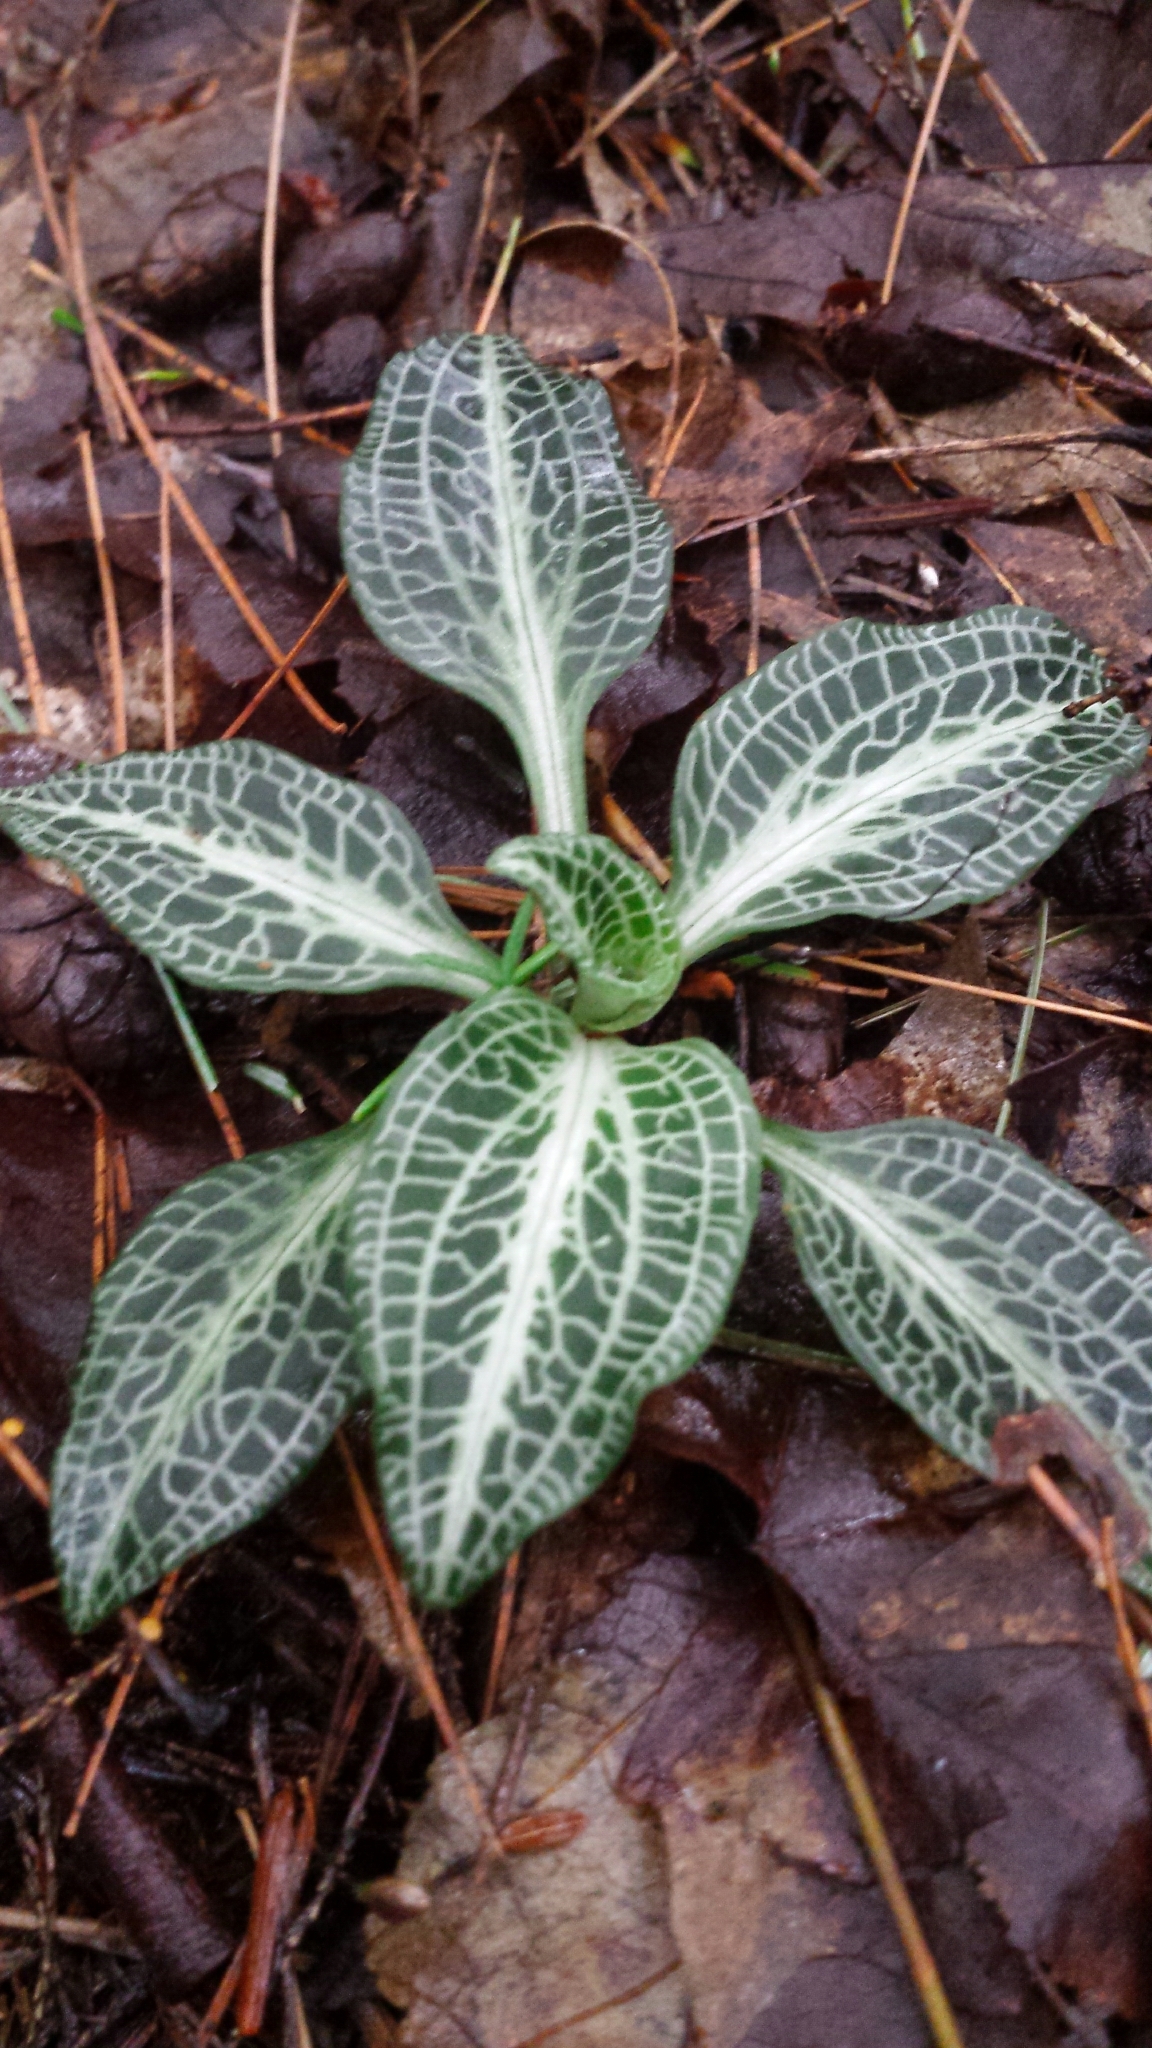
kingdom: Plantae
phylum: Tracheophyta
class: Liliopsida
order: Asparagales
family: Orchidaceae
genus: Goodyera
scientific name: Goodyera pubescens
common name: Downy rattlesnake-plantain
